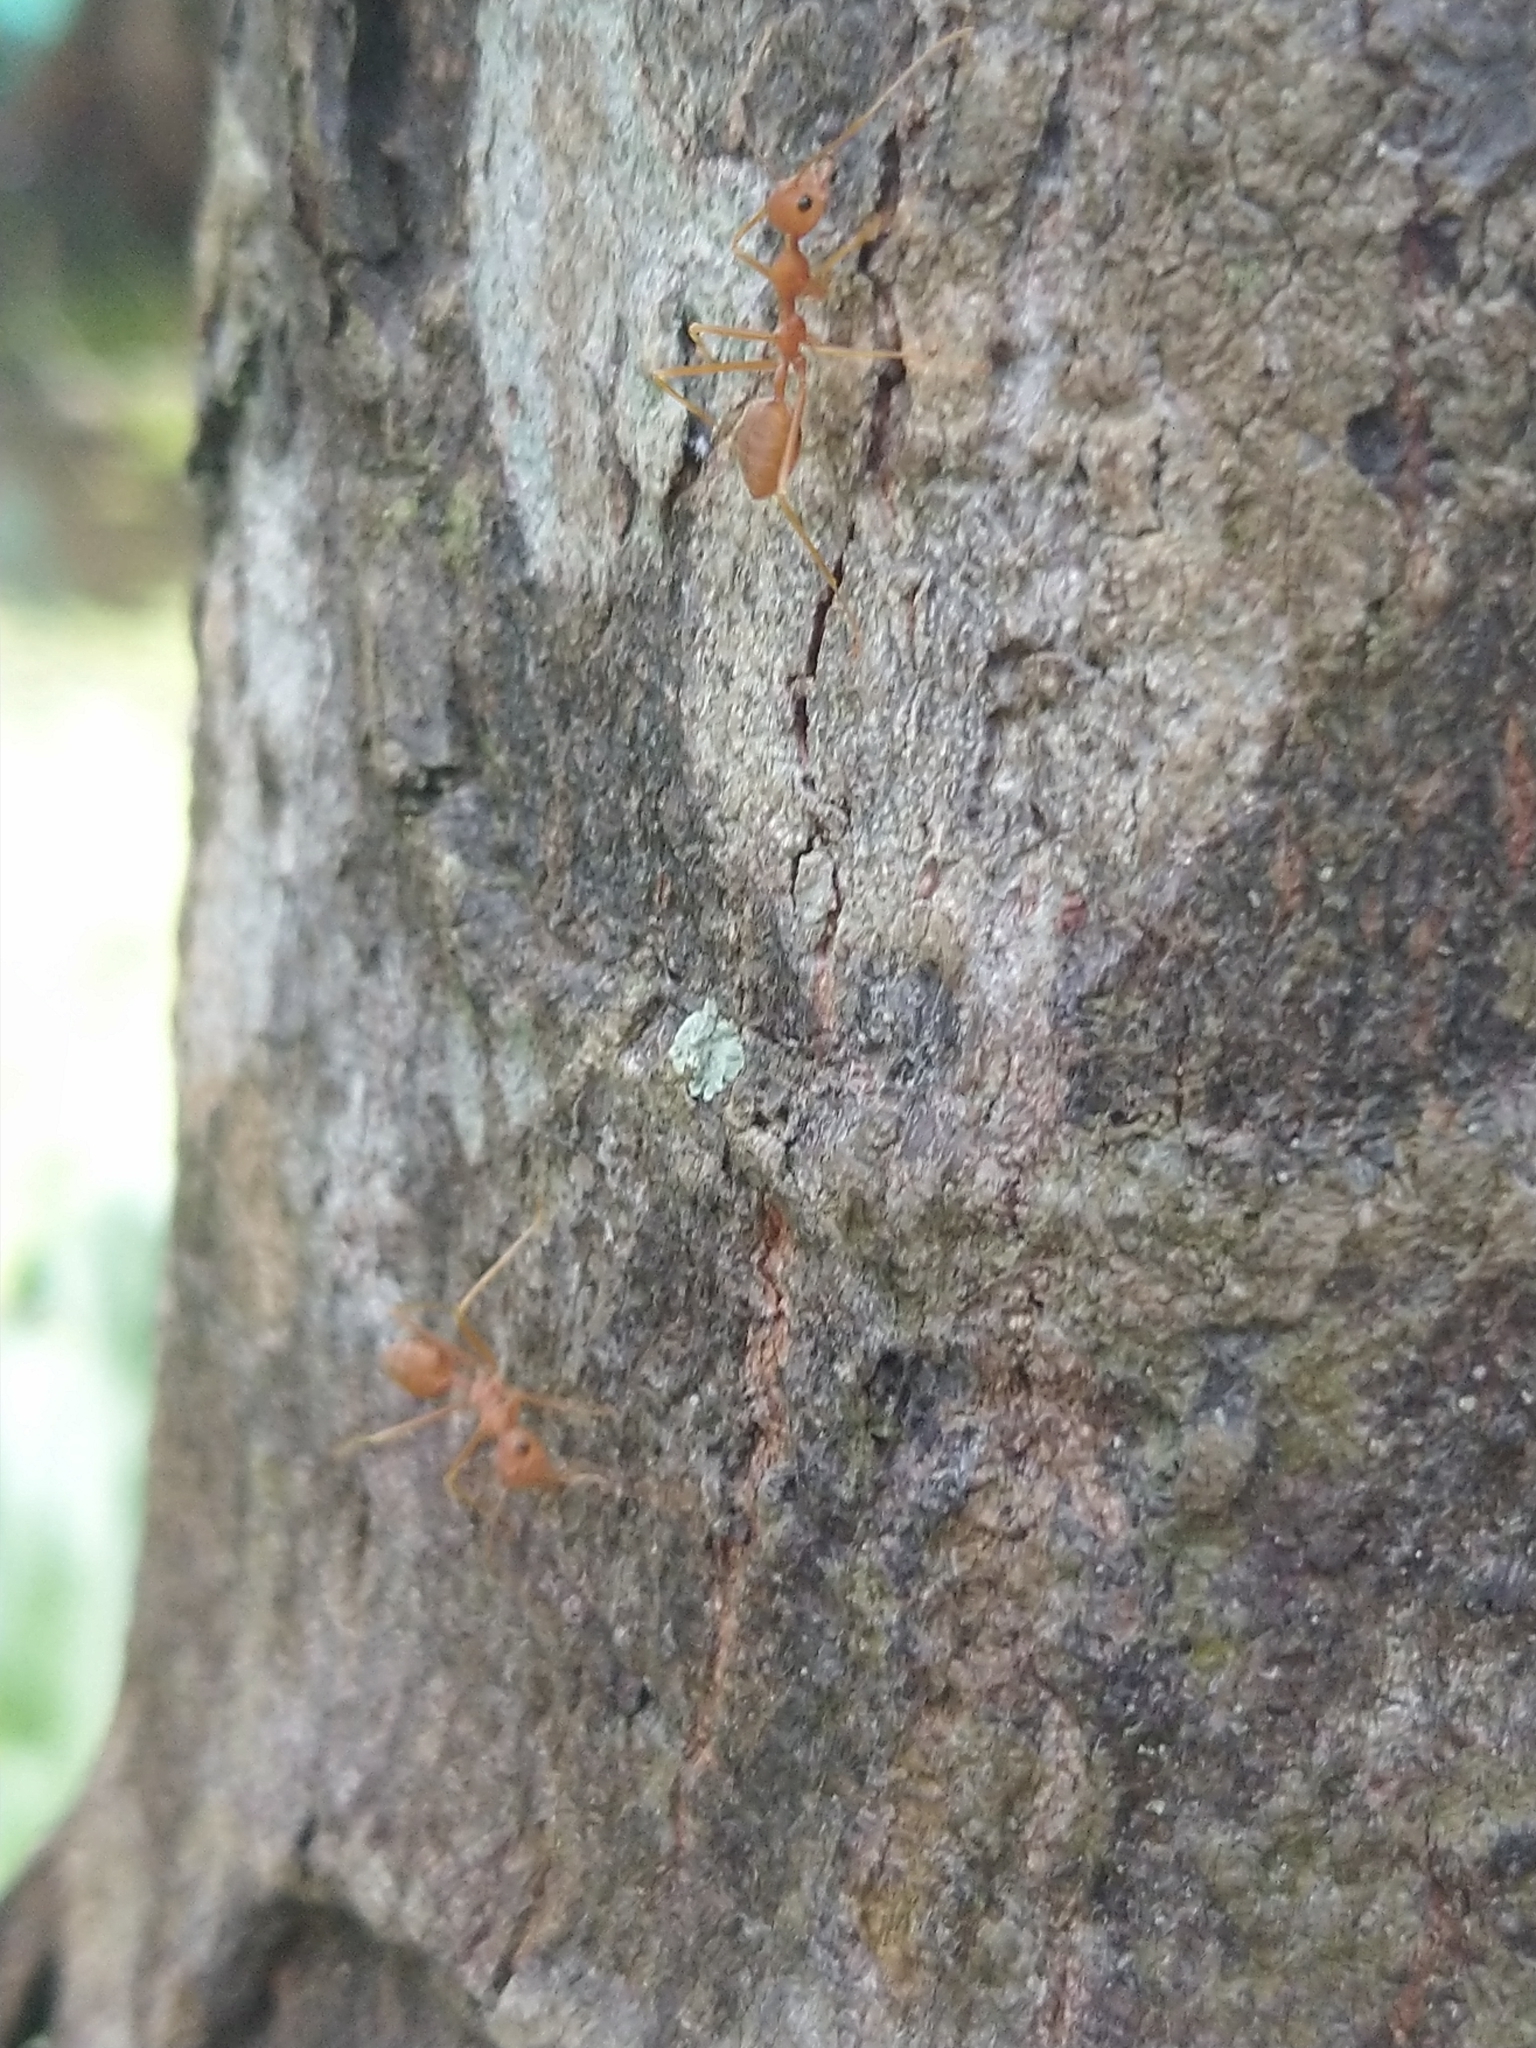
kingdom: Animalia
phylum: Arthropoda
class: Insecta
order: Hymenoptera
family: Formicidae
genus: Oecophylla
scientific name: Oecophylla smaragdina
